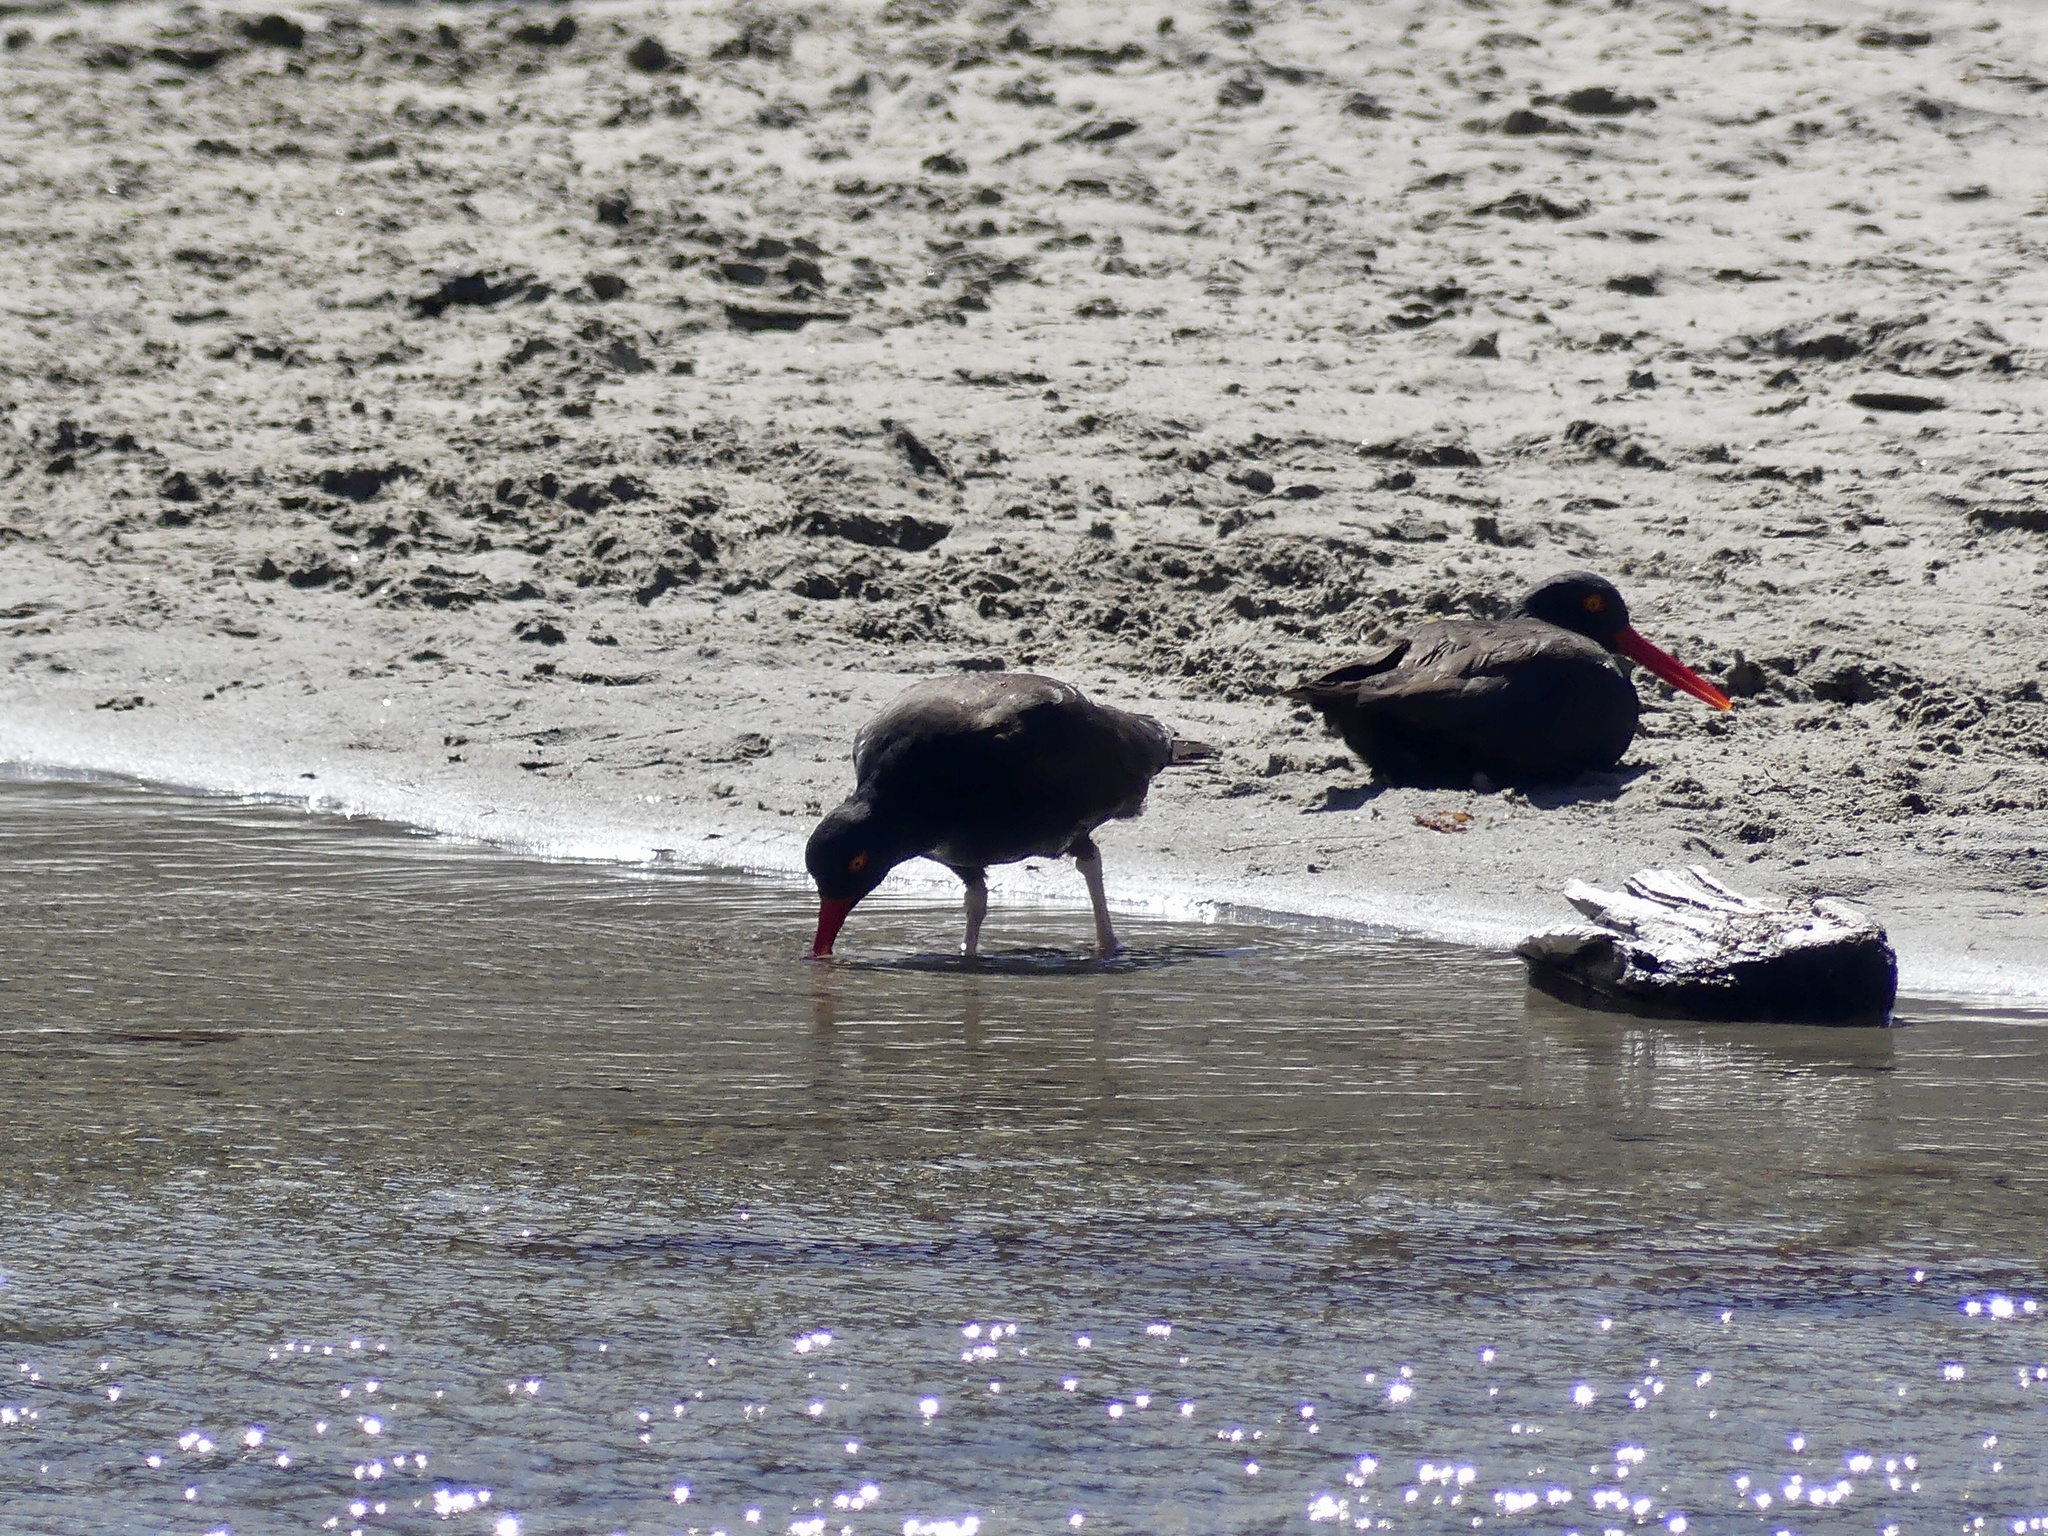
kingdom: Animalia
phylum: Chordata
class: Aves
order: Charadriiformes
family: Haematopodidae
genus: Haematopus
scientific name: Haematopus bachmani
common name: Black oystercatcher
